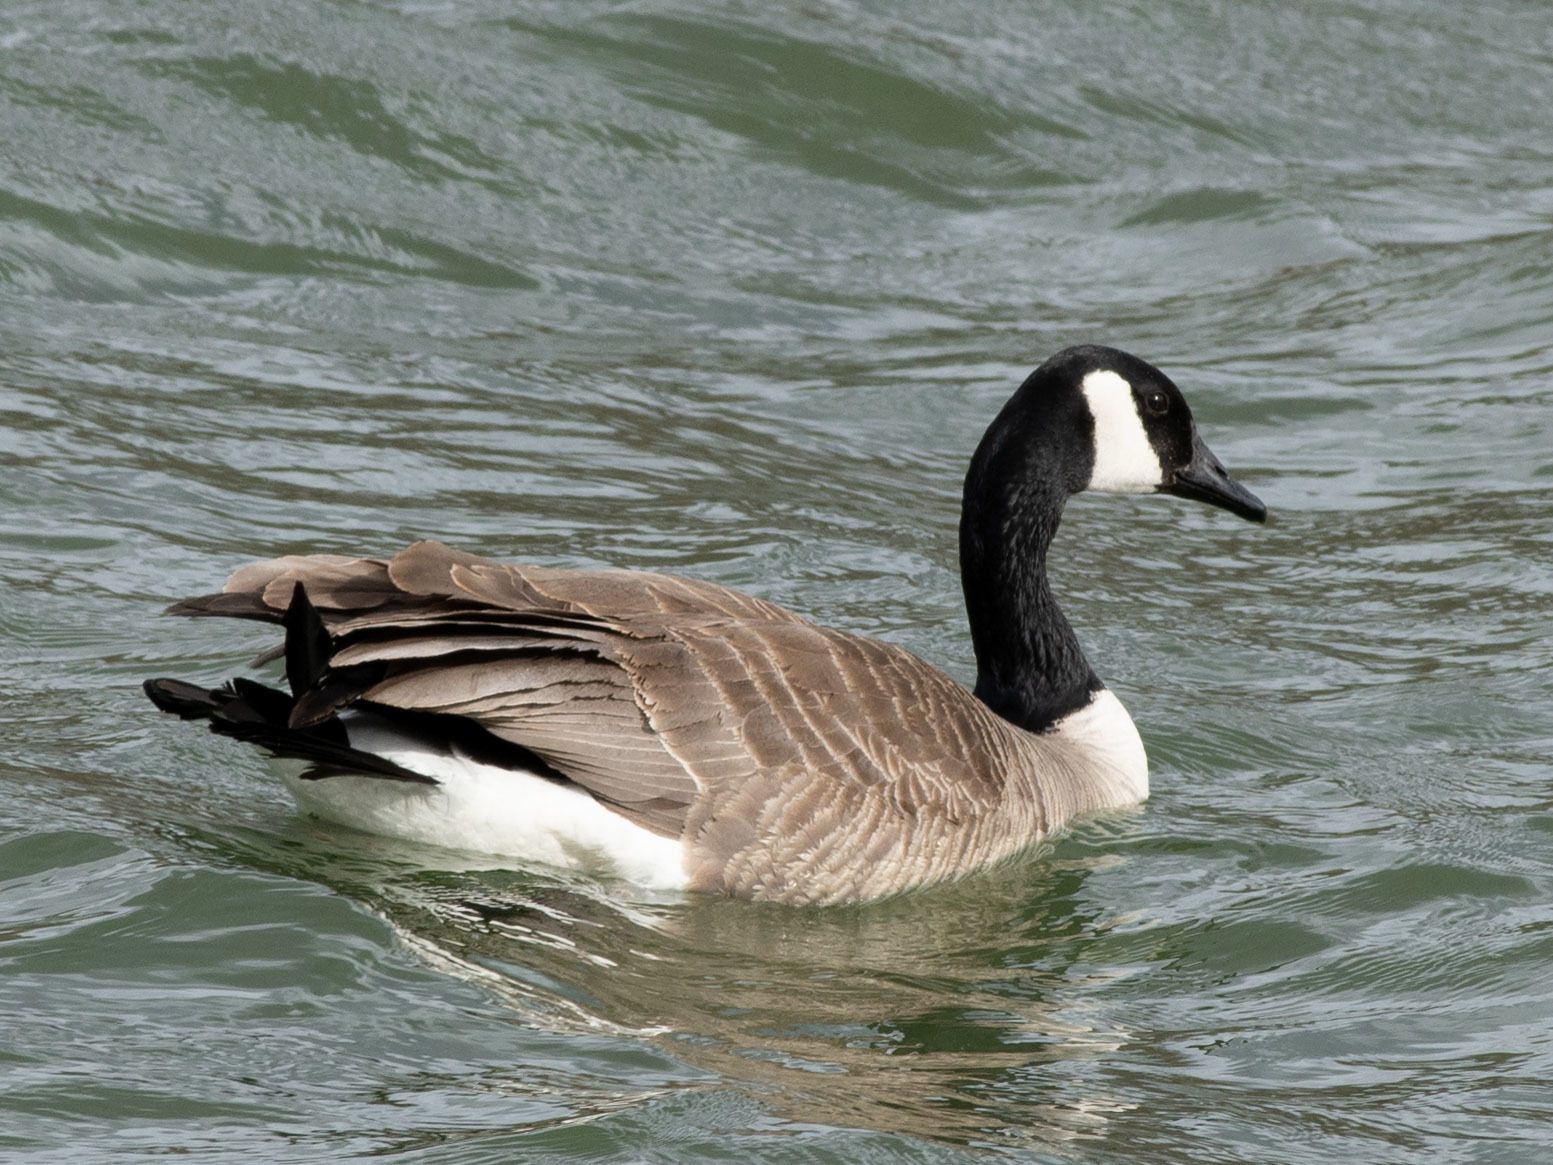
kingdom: Animalia
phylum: Chordata
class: Aves
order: Anseriformes
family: Anatidae
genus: Branta
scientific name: Branta canadensis
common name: Canada goose
